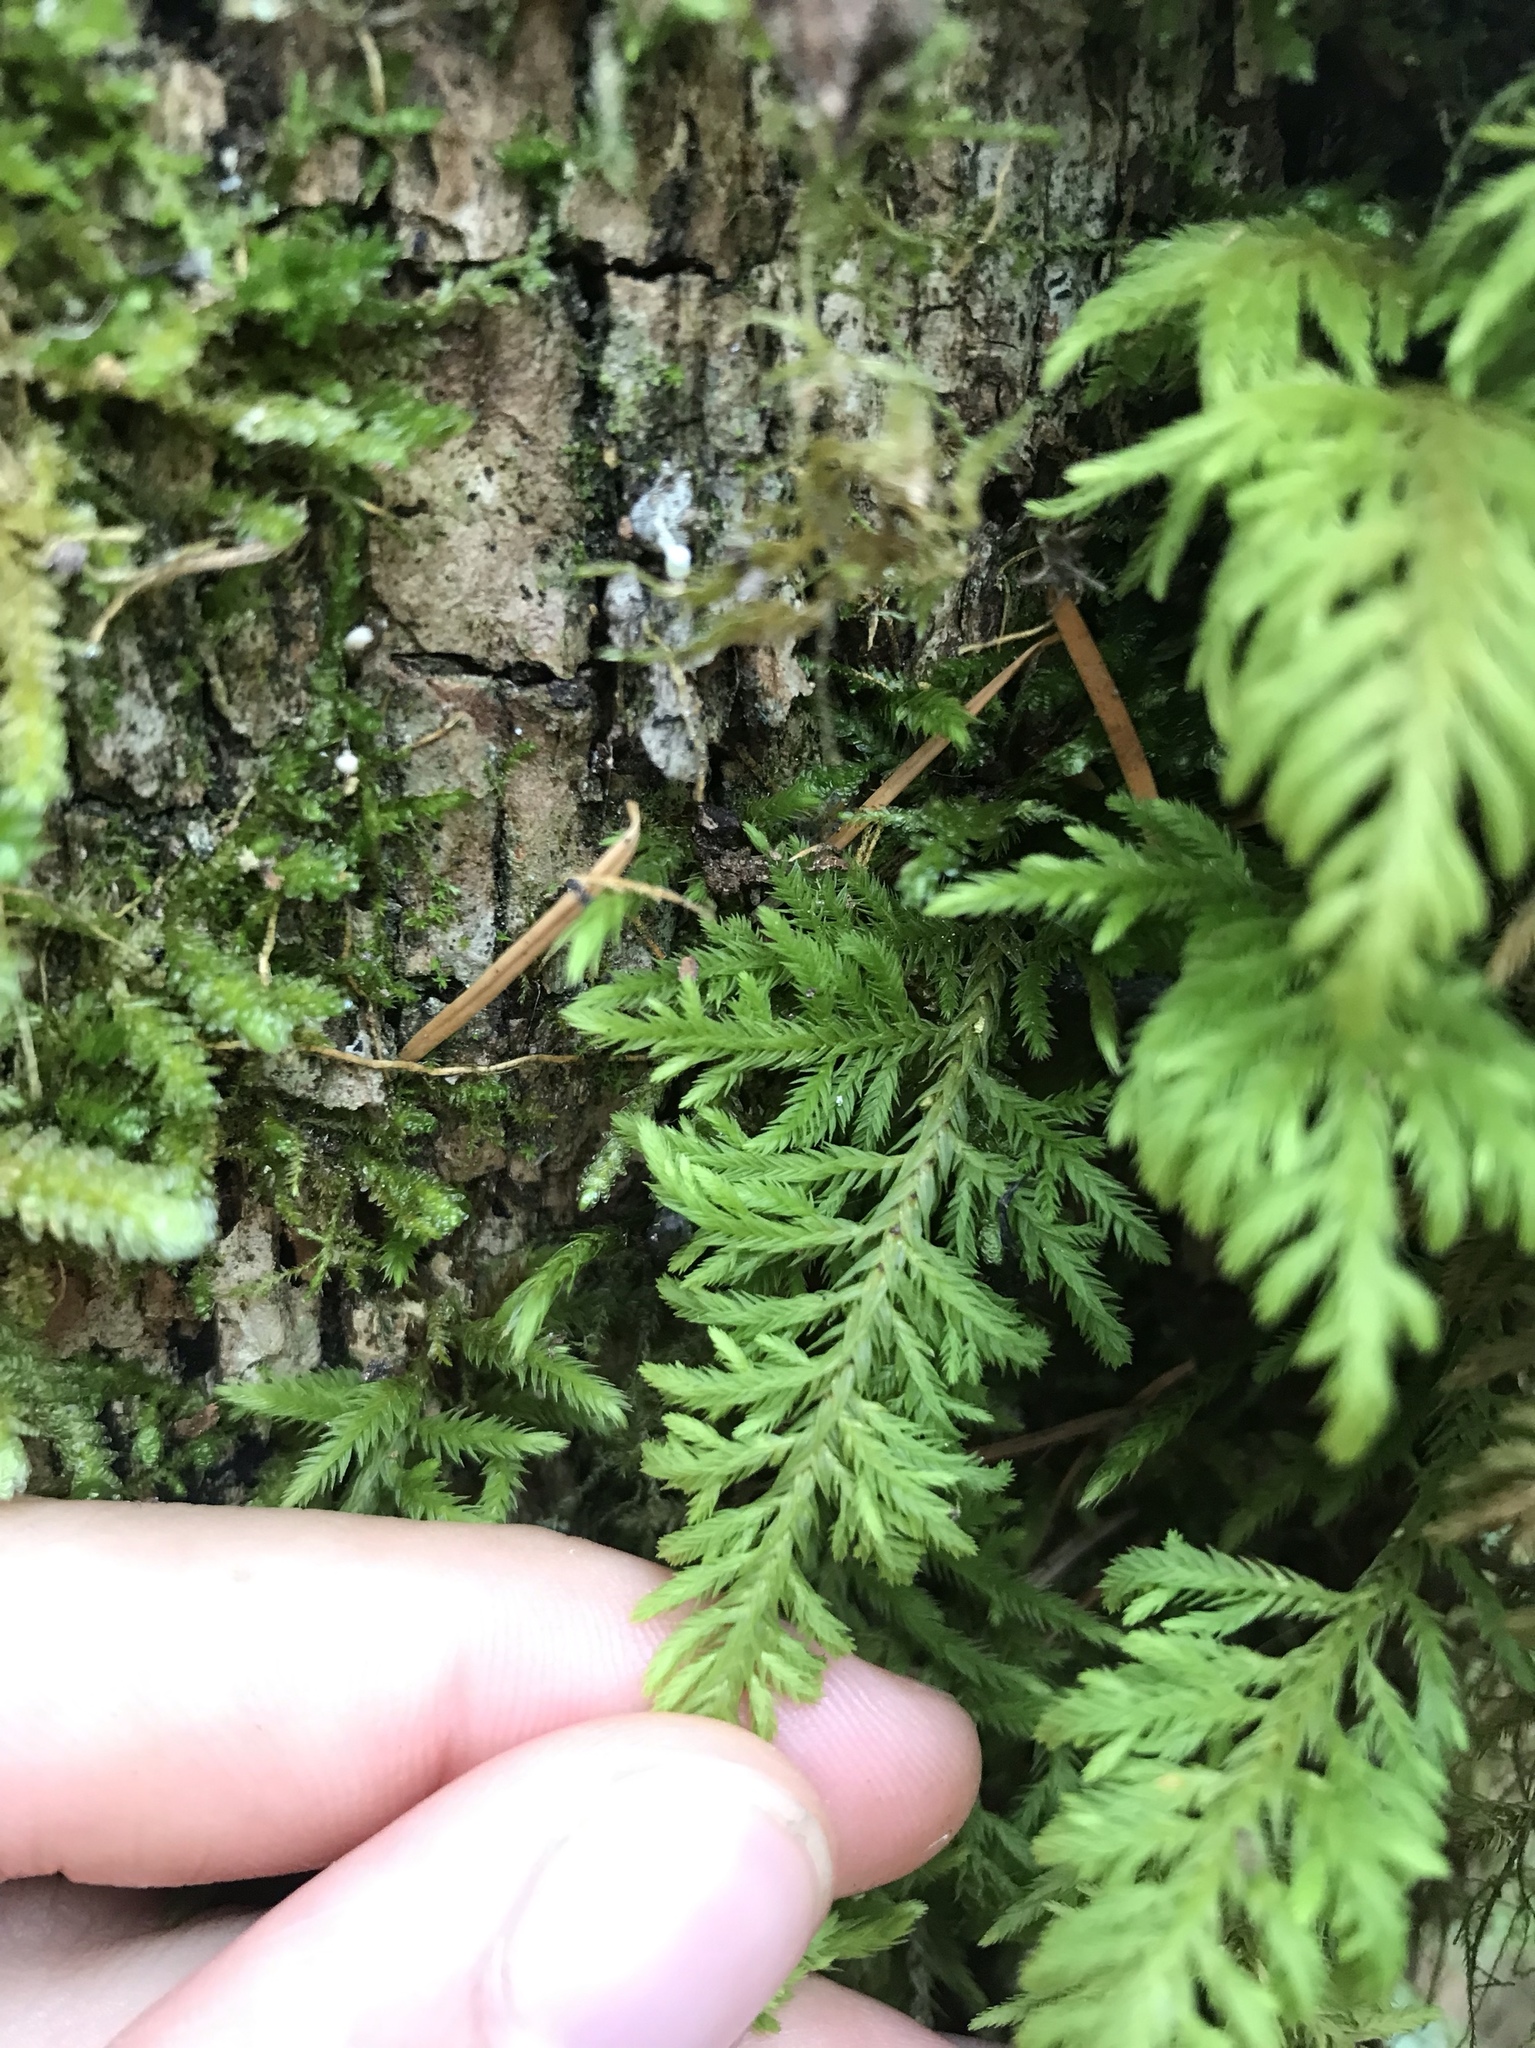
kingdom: Plantae
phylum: Bryophyta
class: Bryopsida
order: Hypnales
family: Cryphaeaceae
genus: Dendroalsia
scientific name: Dendroalsia abietina
